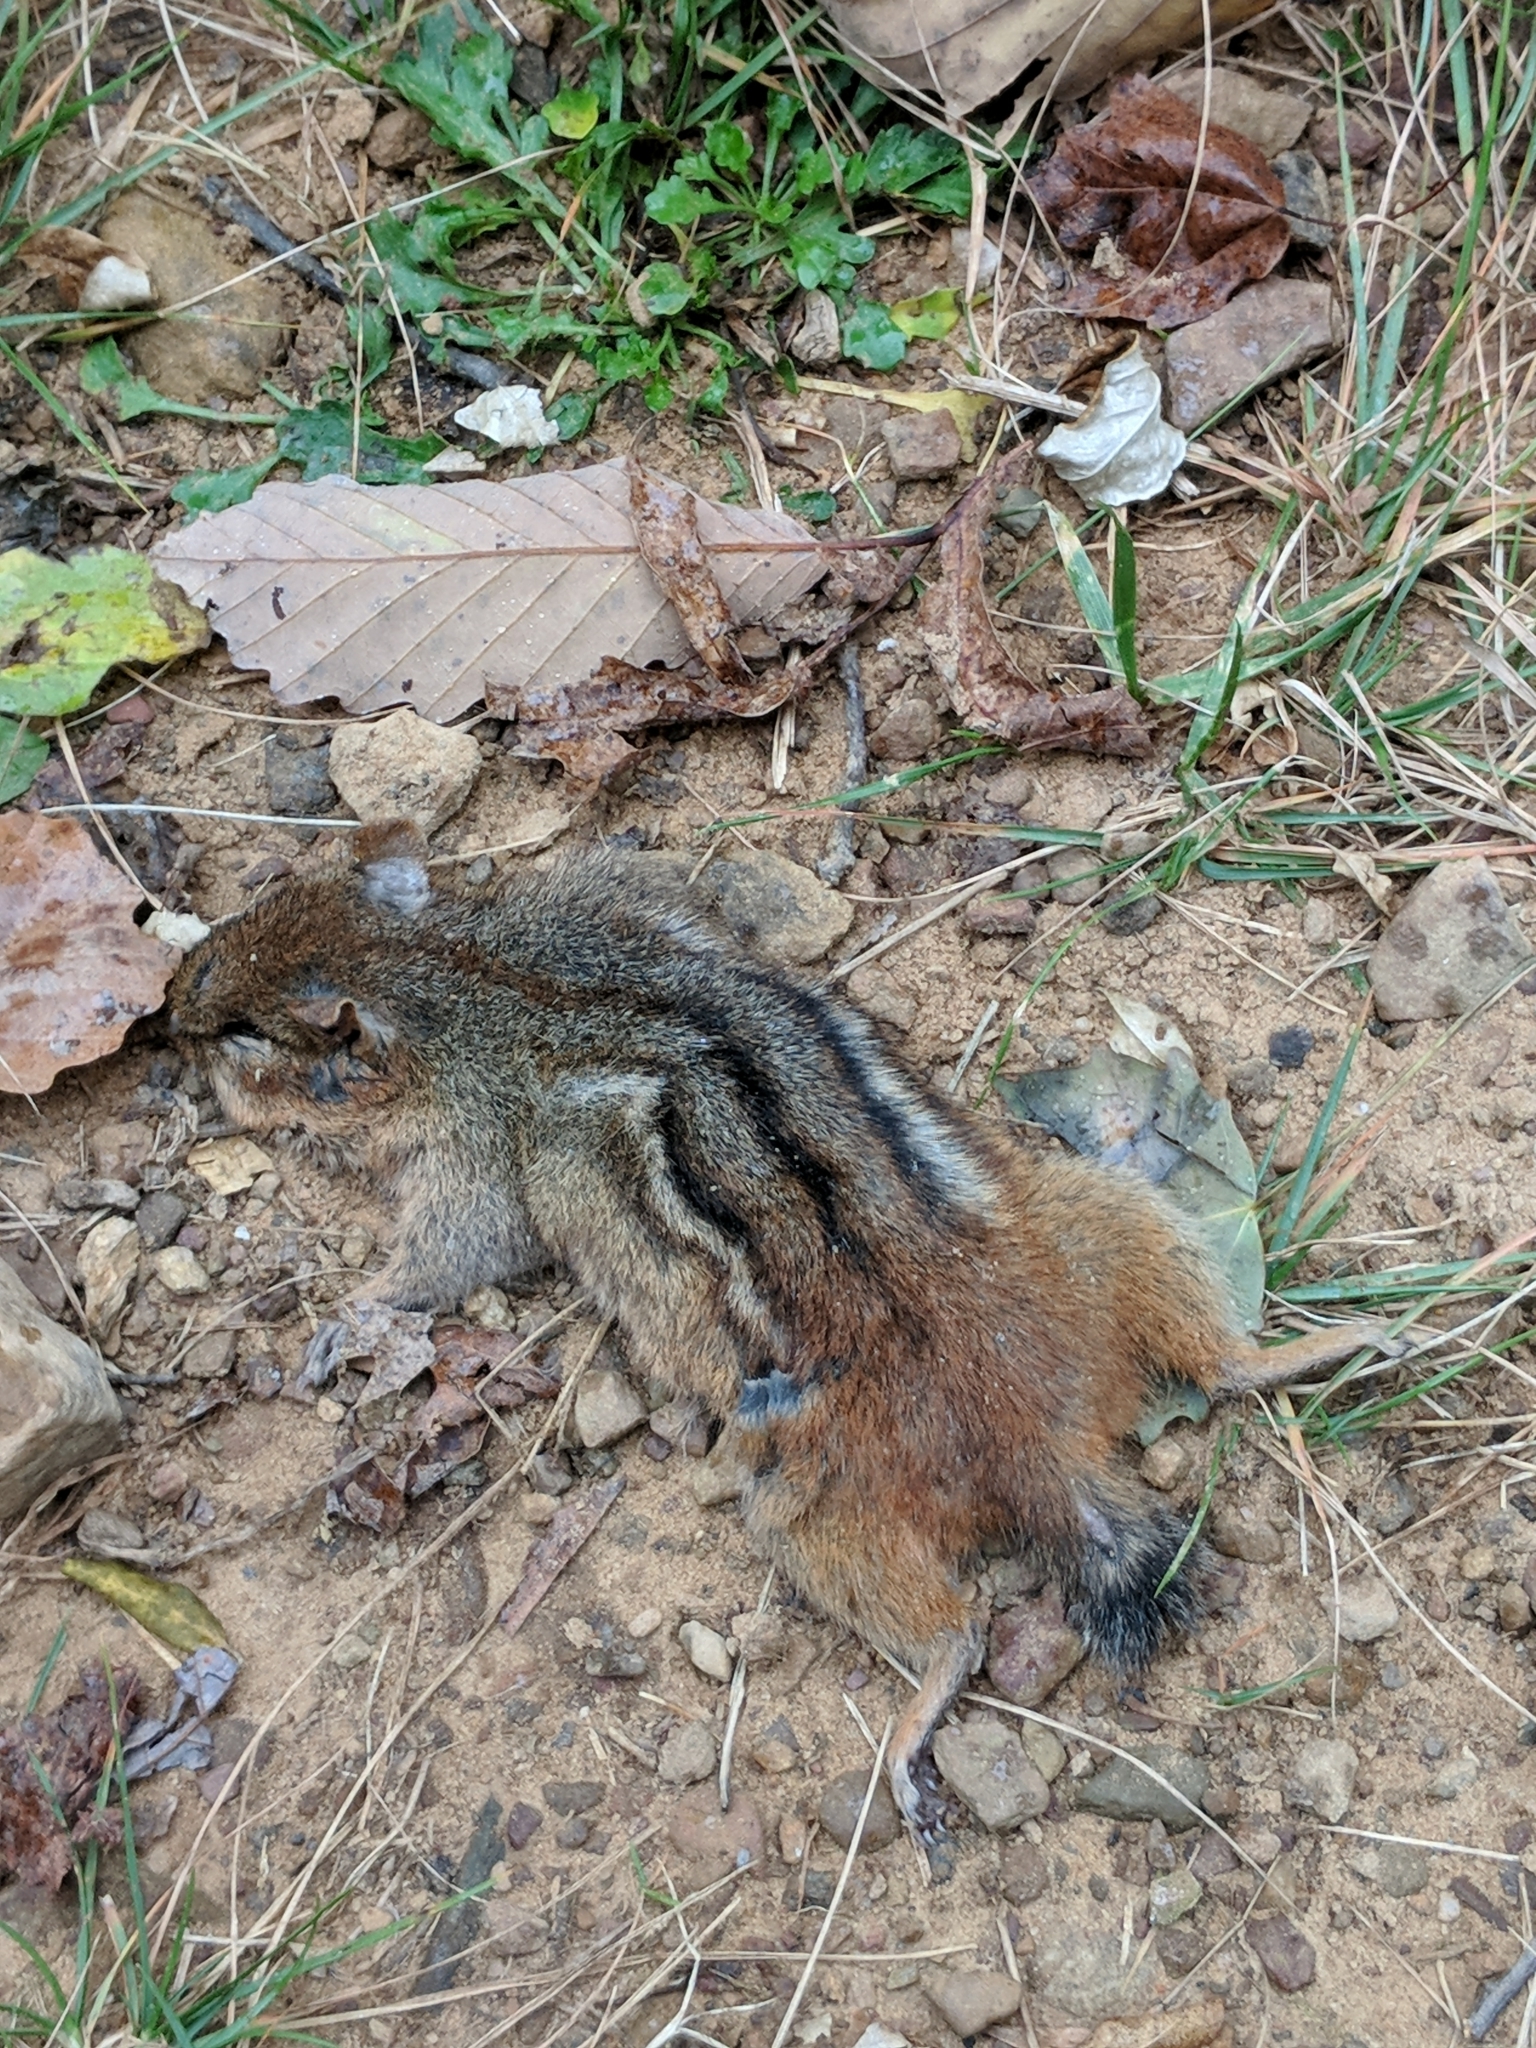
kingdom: Animalia
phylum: Chordata
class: Mammalia
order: Rodentia
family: Sciuridae
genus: Tamias
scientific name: Tamias striatus
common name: Eastern chipmunk
